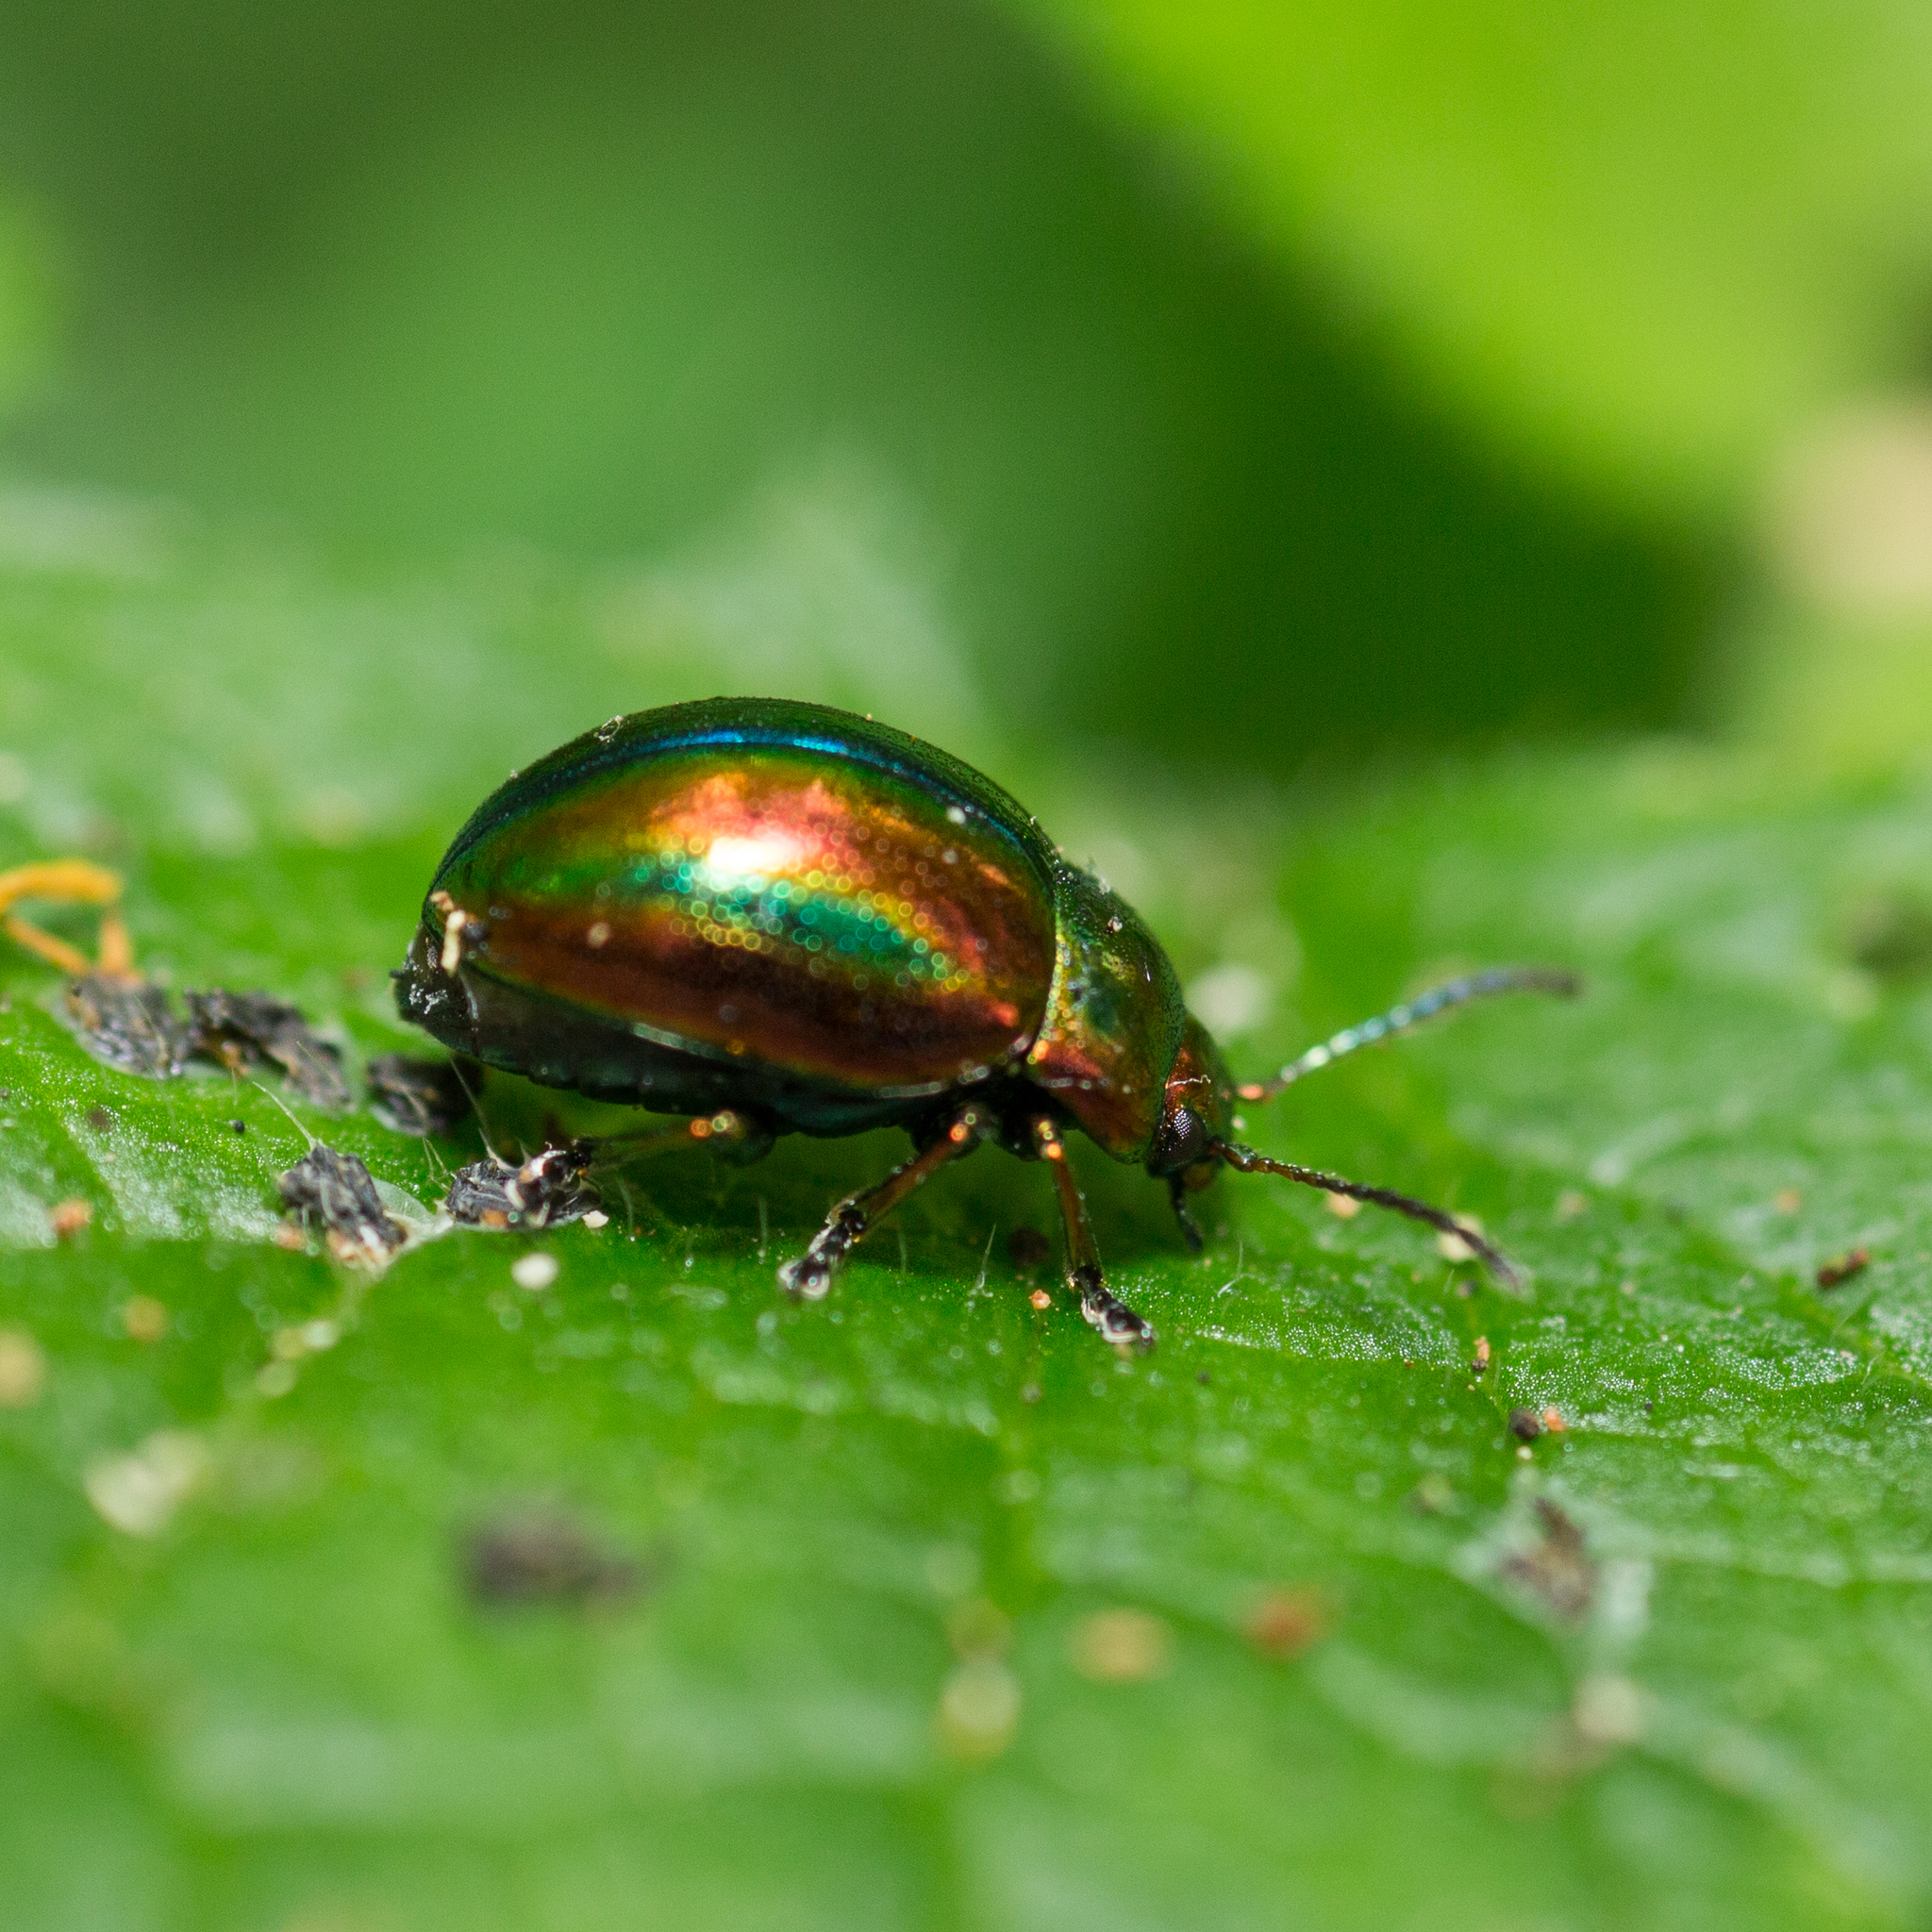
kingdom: Animalia
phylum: Arthropoda
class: Insecta
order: Coleoptera
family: Chrysomelidae
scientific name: Chrysomelidae
